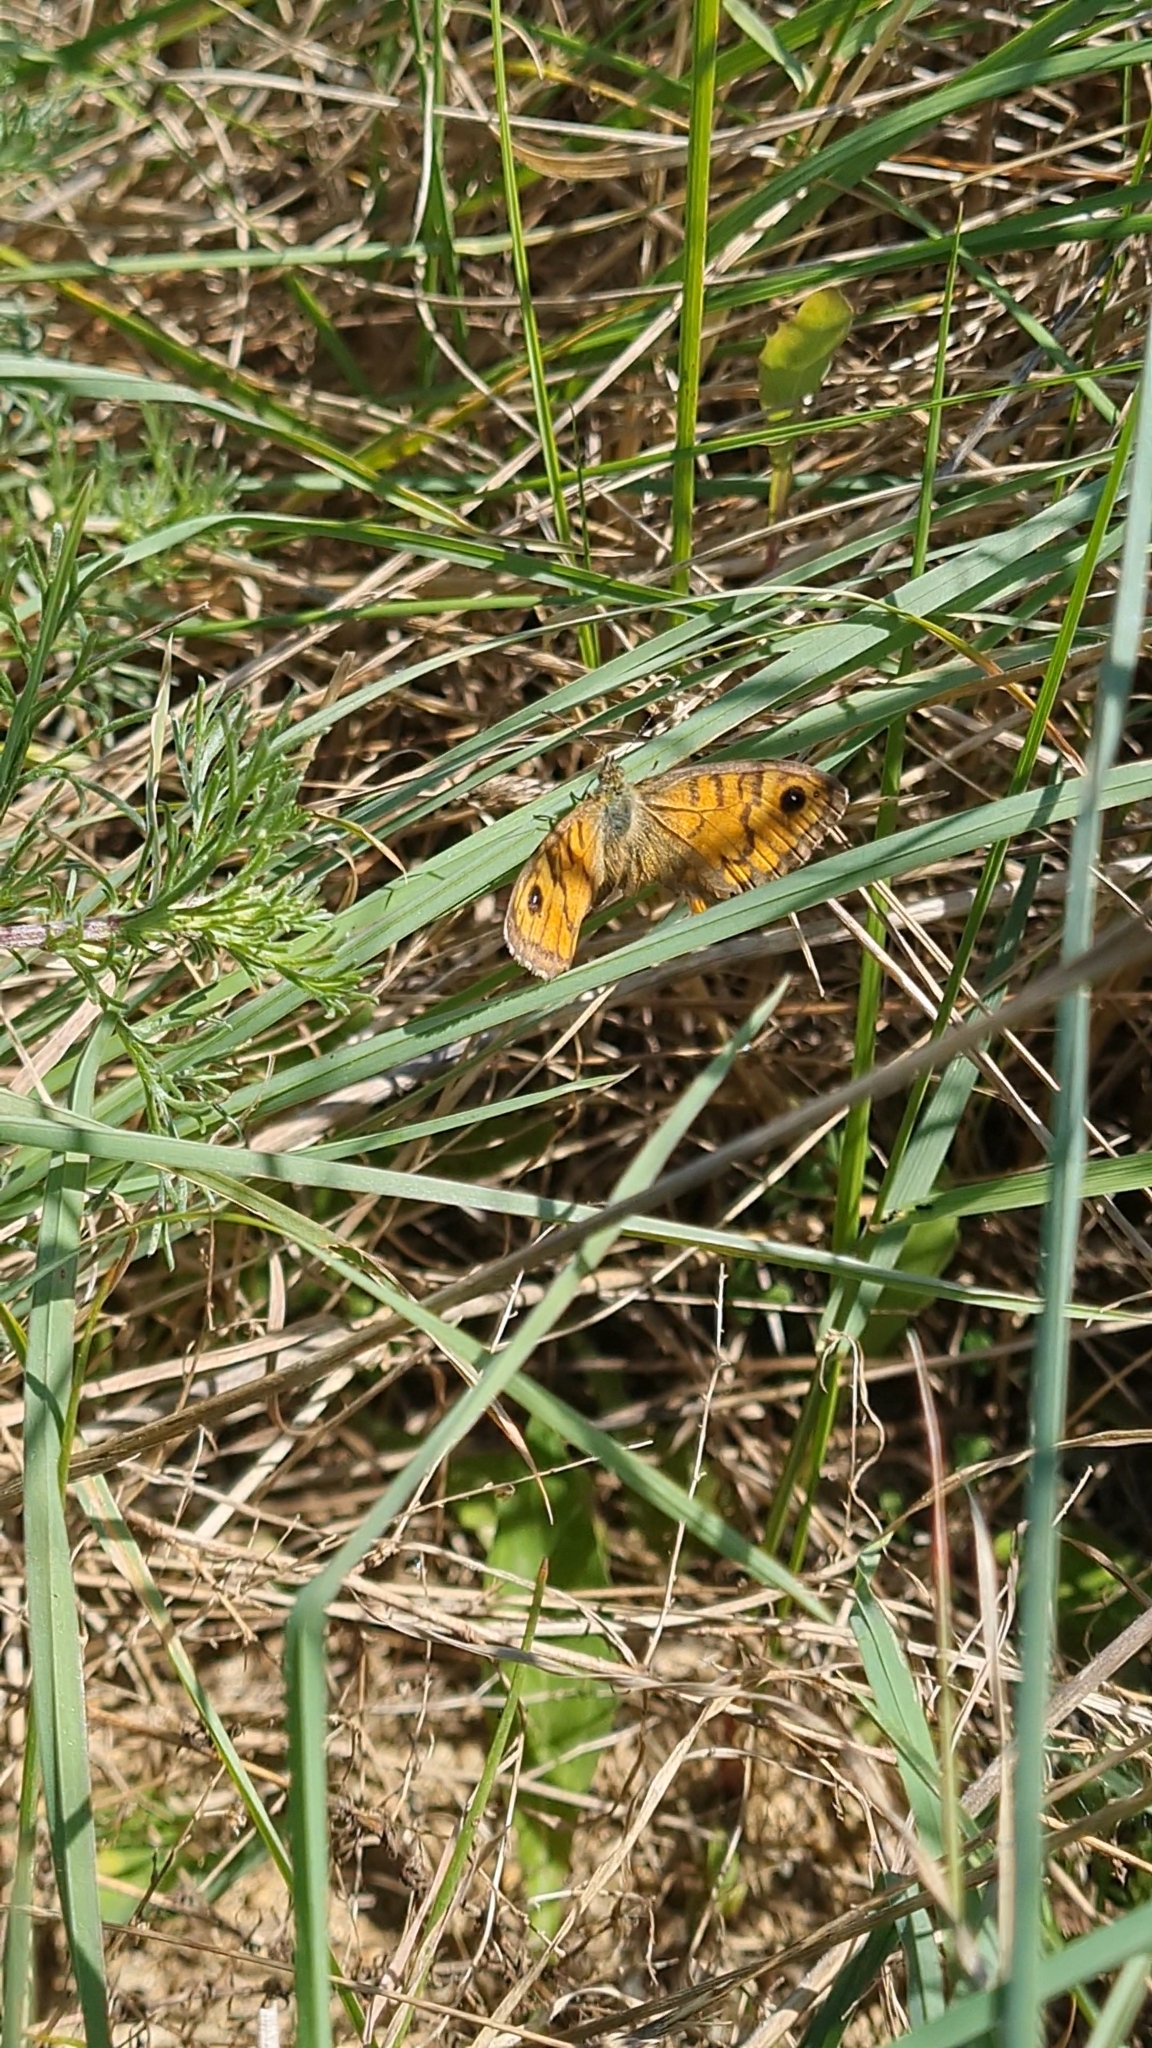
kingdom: Animalia
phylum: Arthropoda
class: Insecta
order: Lepidoptera
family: Nymphalidae
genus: Pararge
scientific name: Pararge Lasiommata megera
